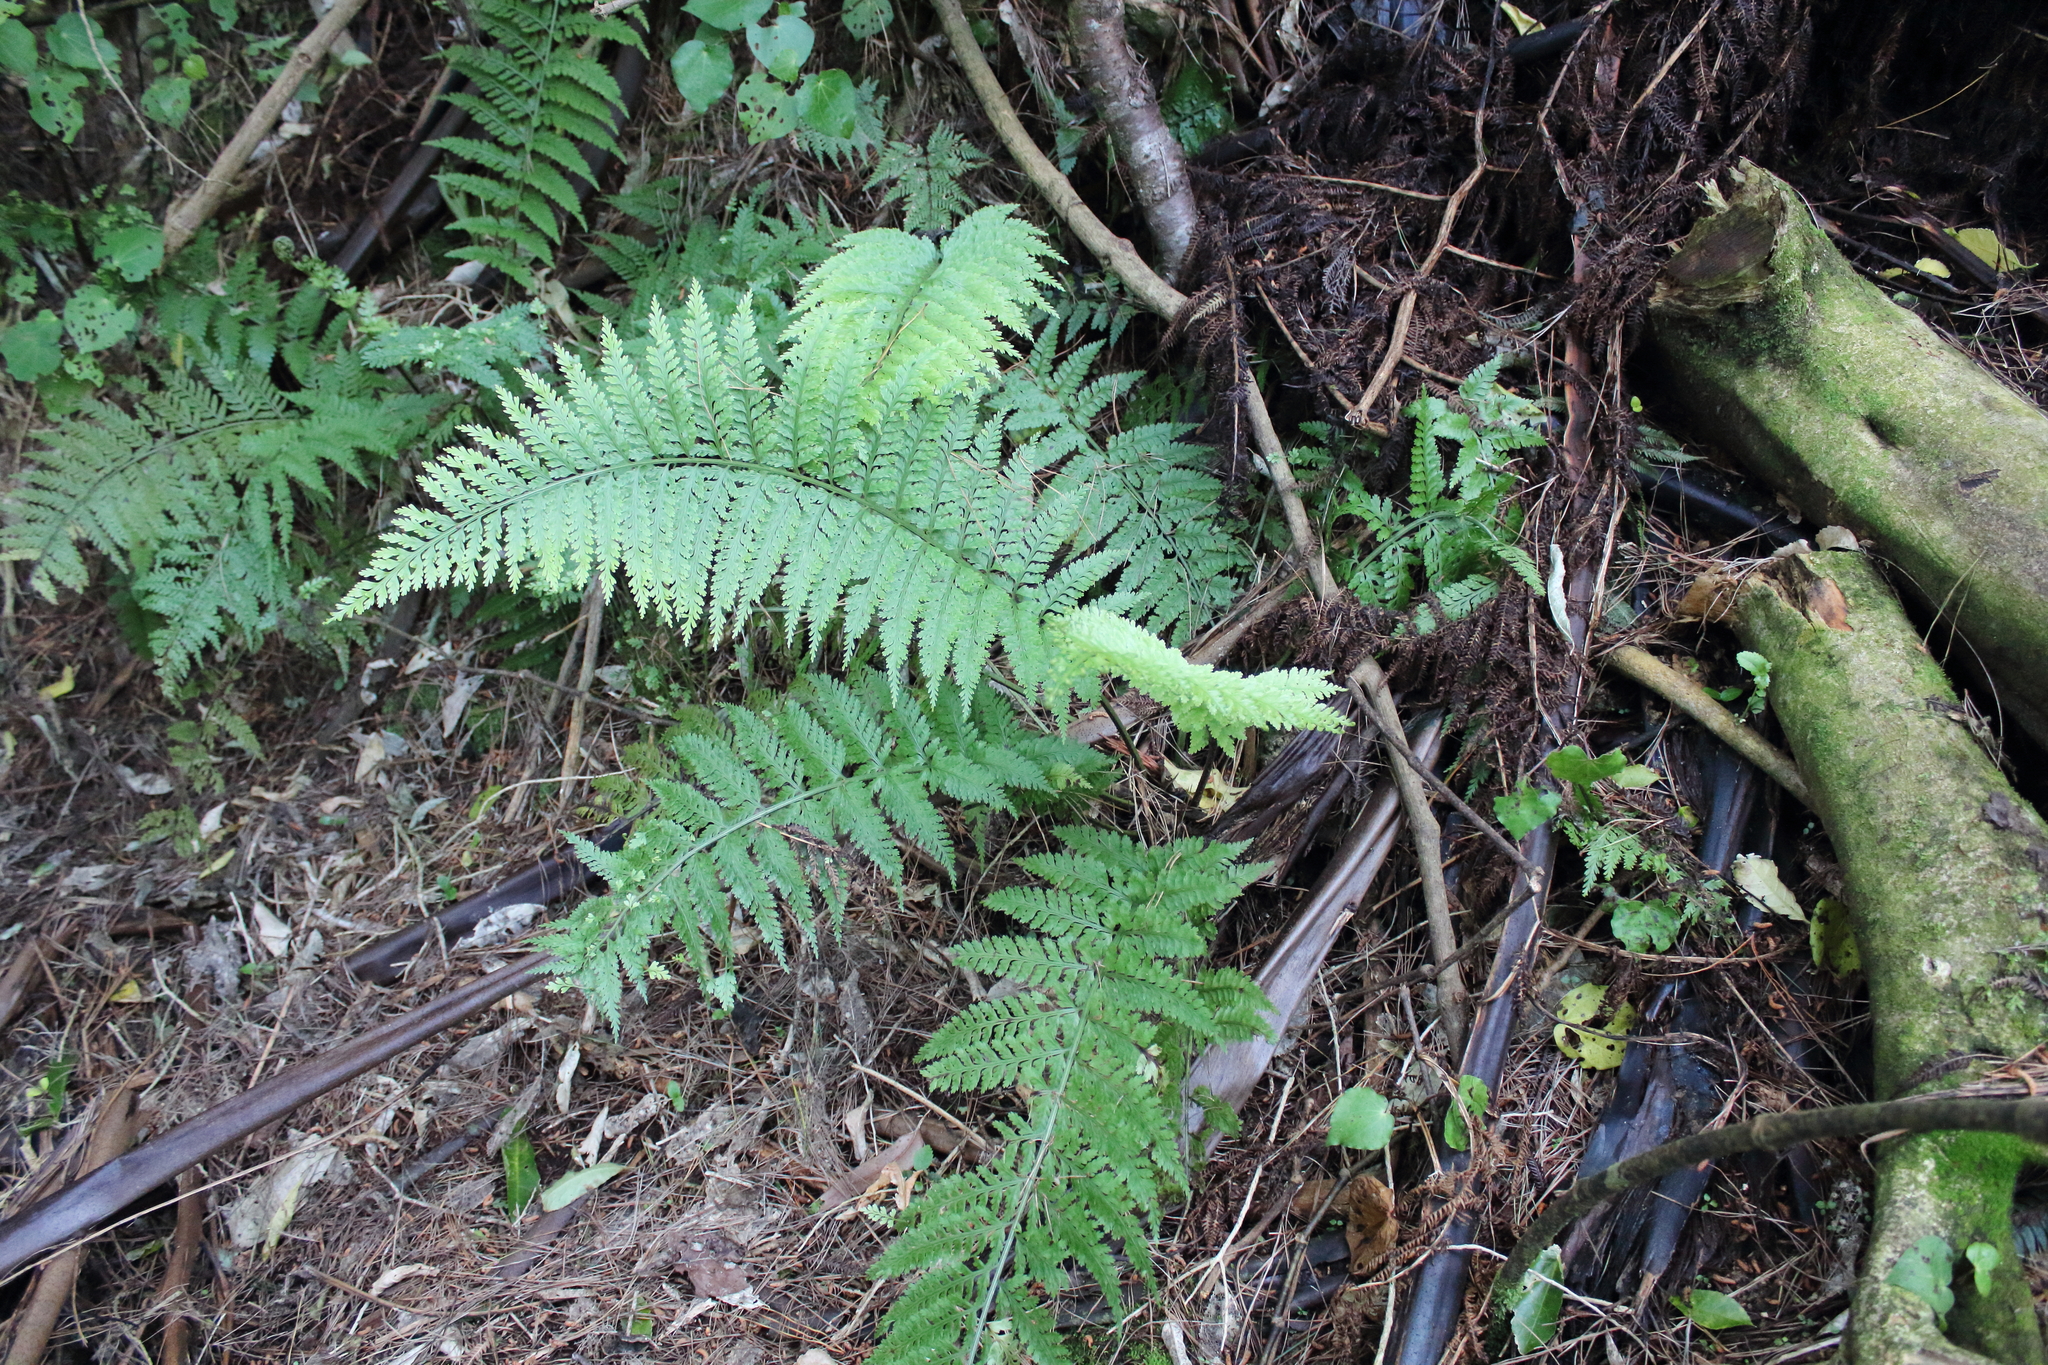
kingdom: Plantae
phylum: Tracheophyta
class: Polypodiopsida
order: Polypodiales
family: Aspleniaceae
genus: Asplenium
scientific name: Asplenium
